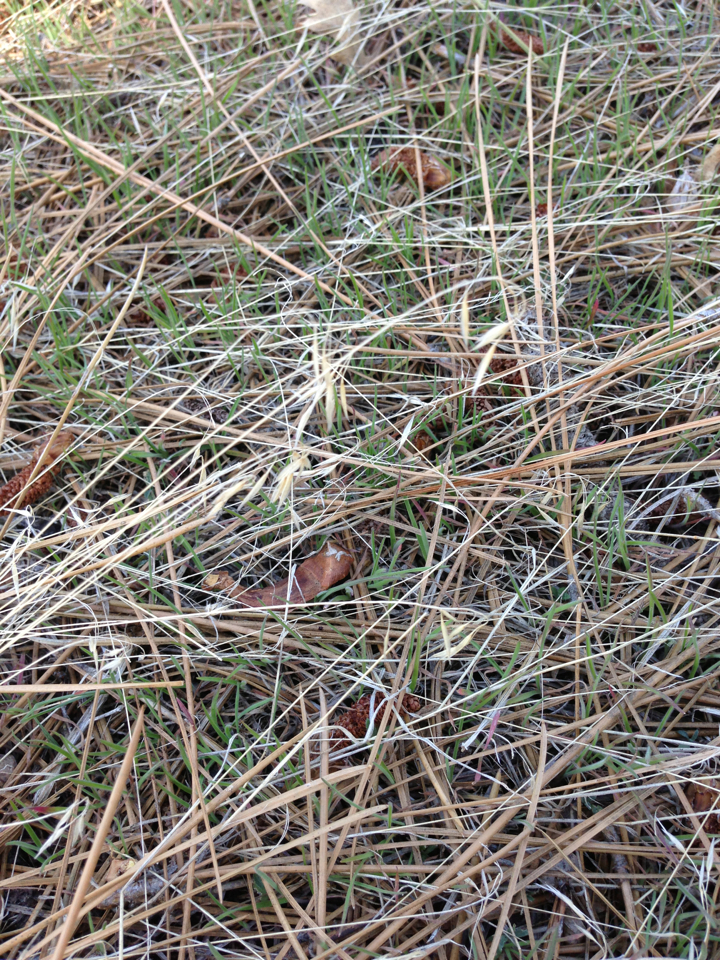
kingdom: Plantae
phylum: Tracheophyta
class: Liliopsida
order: Poales
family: Poaceae
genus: Bromus
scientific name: Bromus tectorum
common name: Cheatgrass
